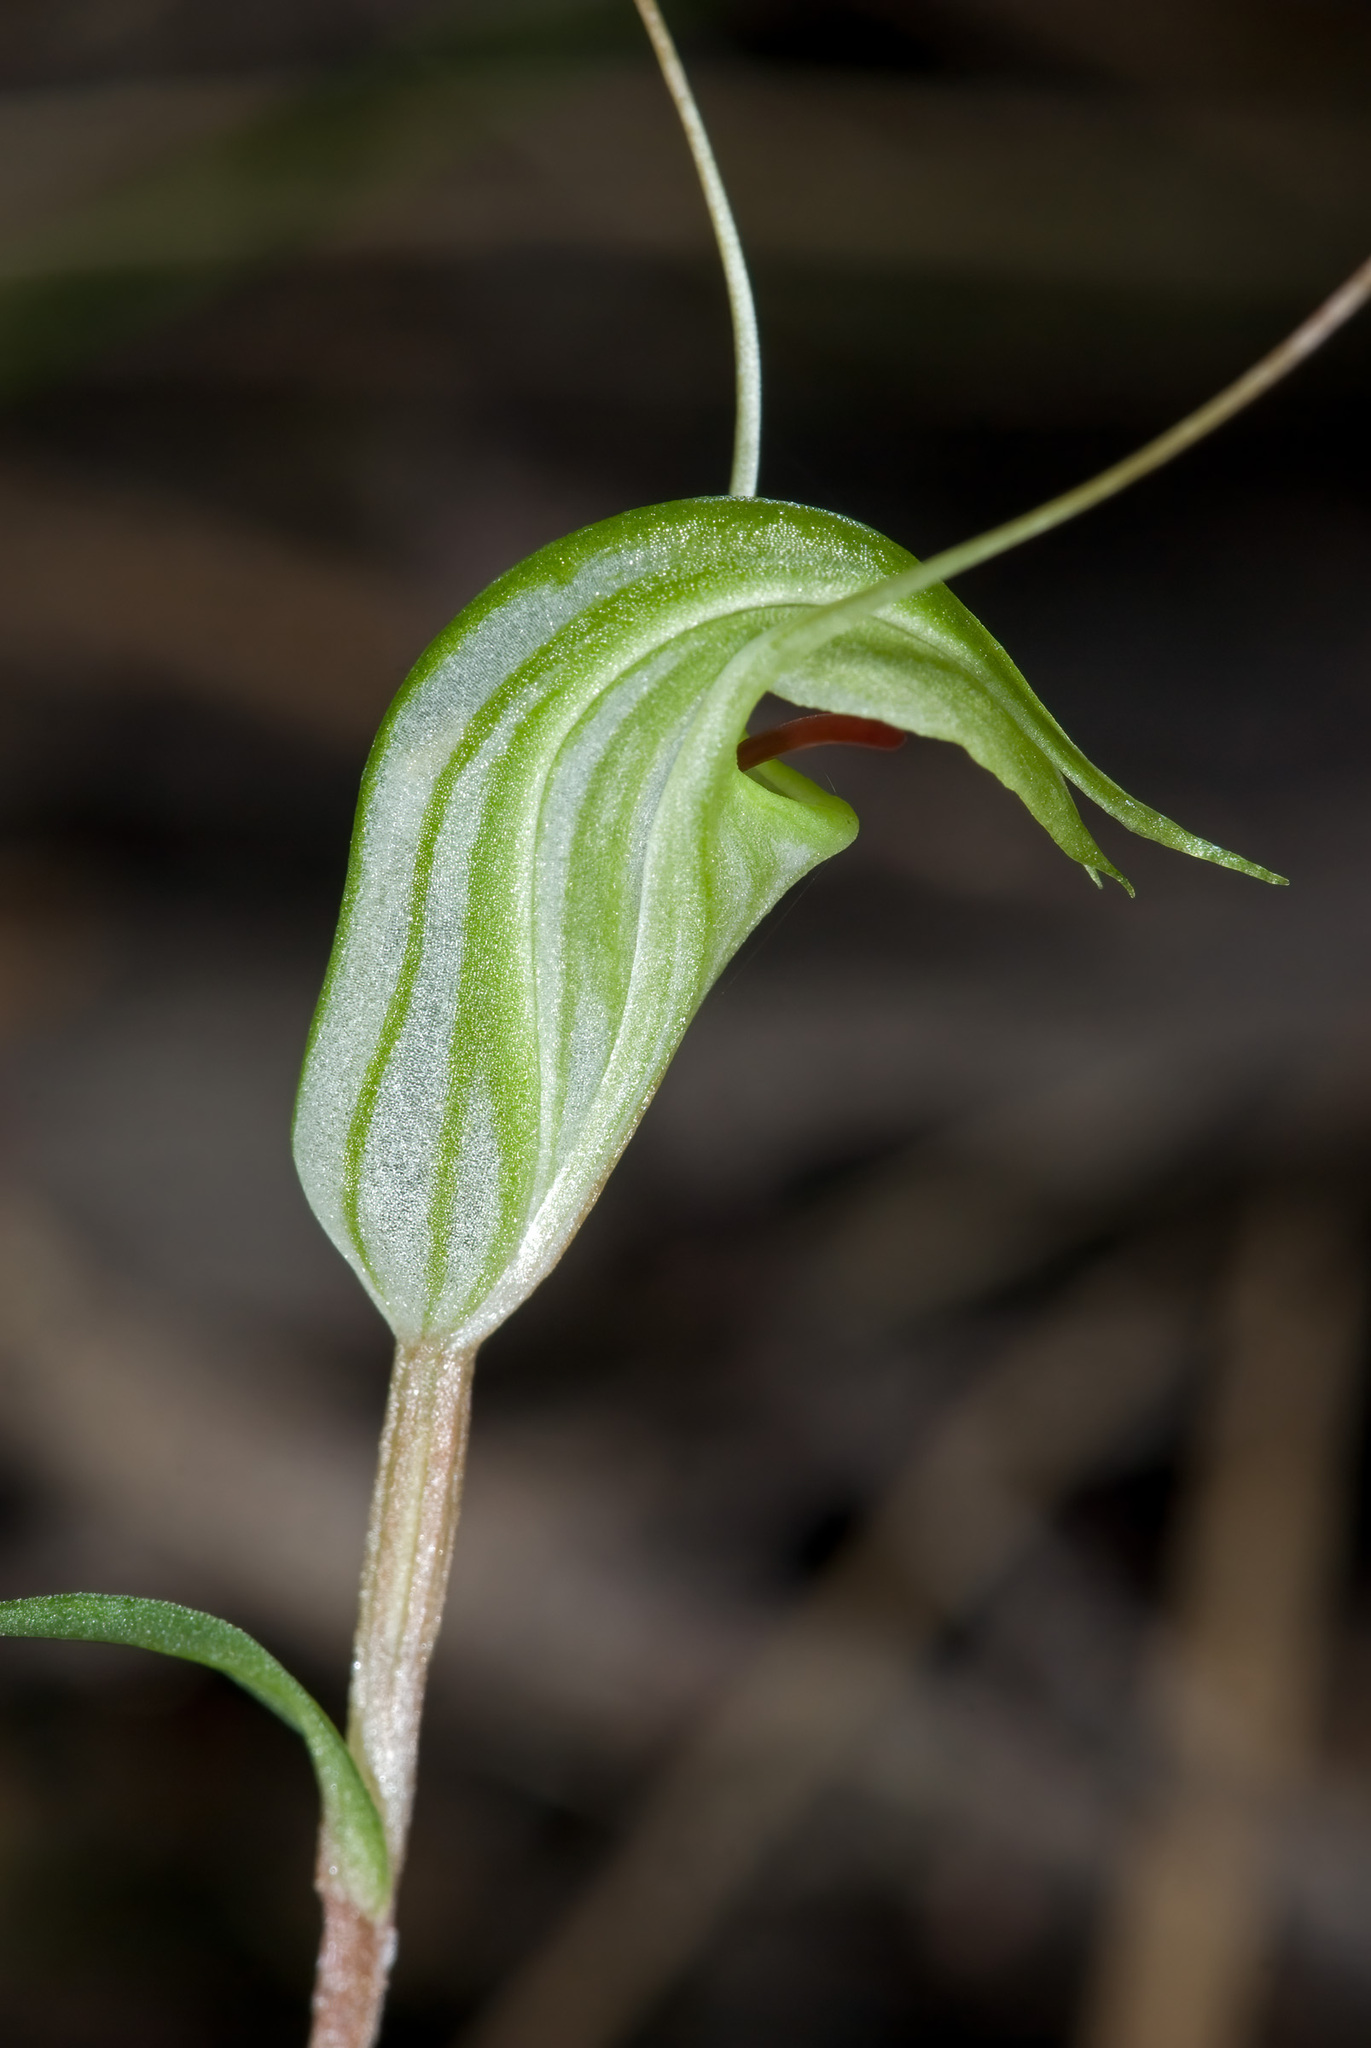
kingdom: Plantae
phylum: Tracheophyta
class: Liliopsida
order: Asparagales
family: Orchidaceae
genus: Pterostylis
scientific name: Pterostylis trullifolia
